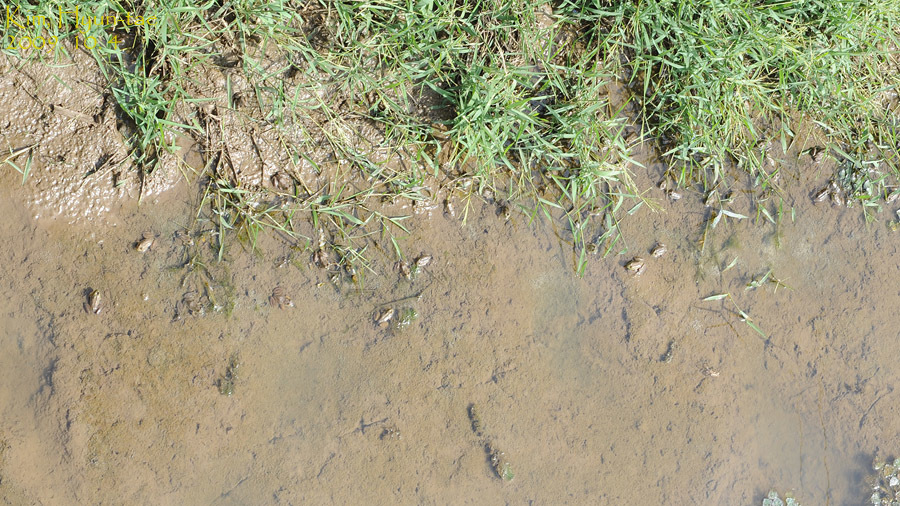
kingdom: Animalia
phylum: Chordata
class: Amphibia
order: Anura
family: Ranidae
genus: Lithobates
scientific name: Lithobates catesbeianus
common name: American bullfrog
